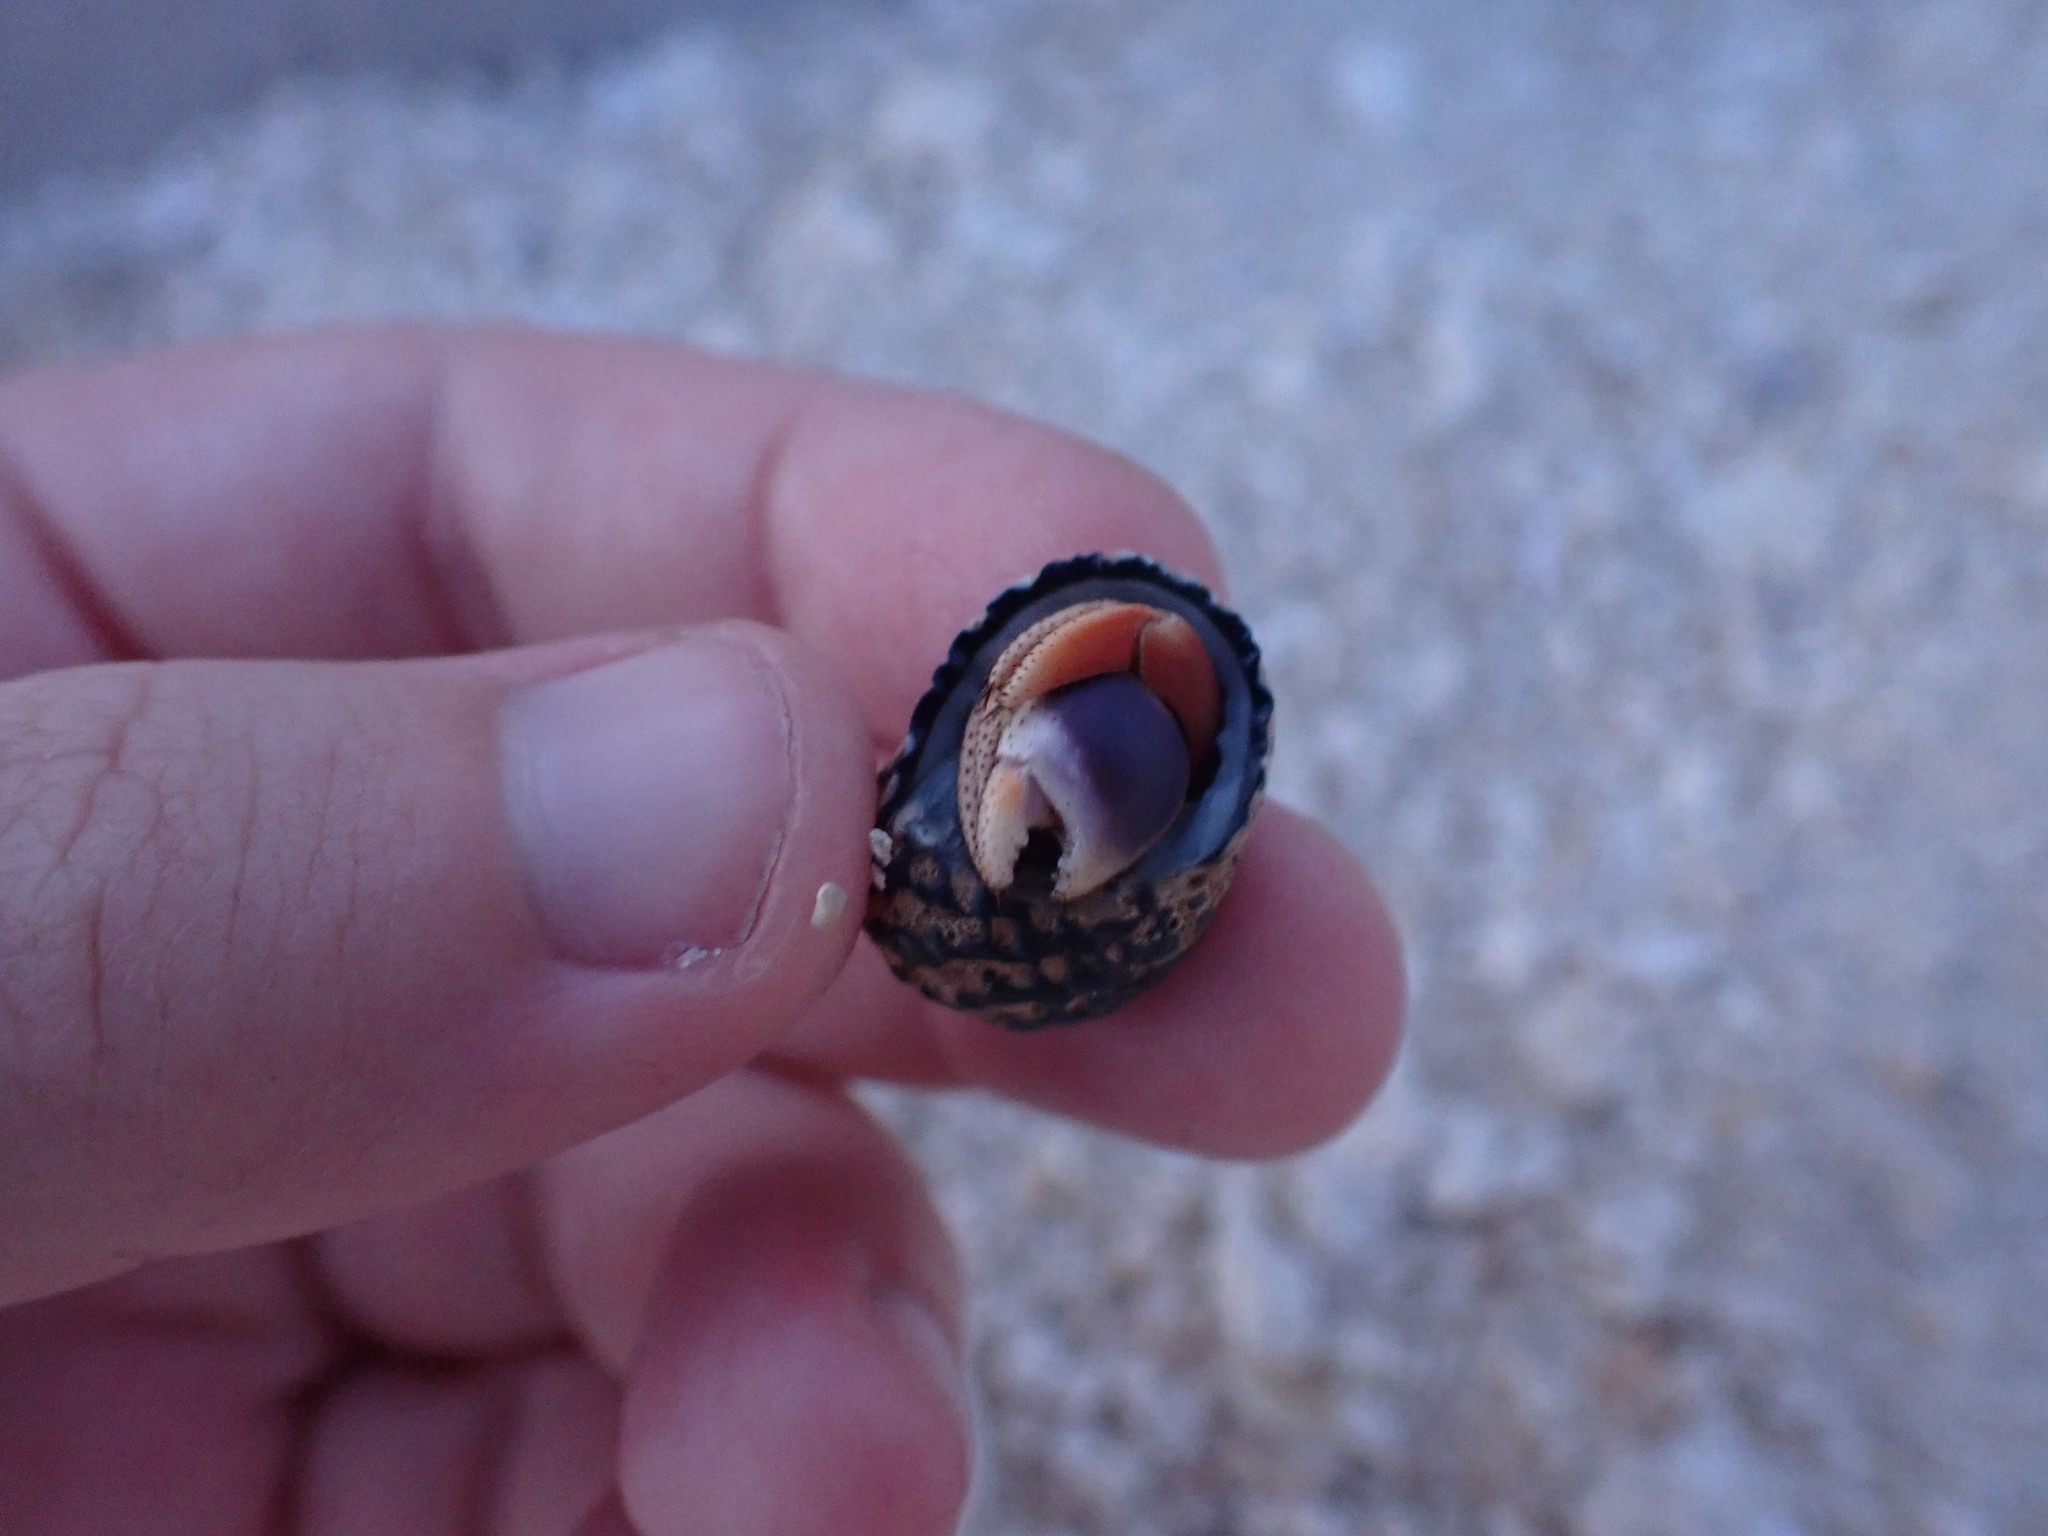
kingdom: Animalia
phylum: Arthropoda
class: Malacostraca
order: Decapoda
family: Coenobitidae
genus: Coenobita
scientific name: Coenobita clypeatus
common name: Caribbean hermit crab
